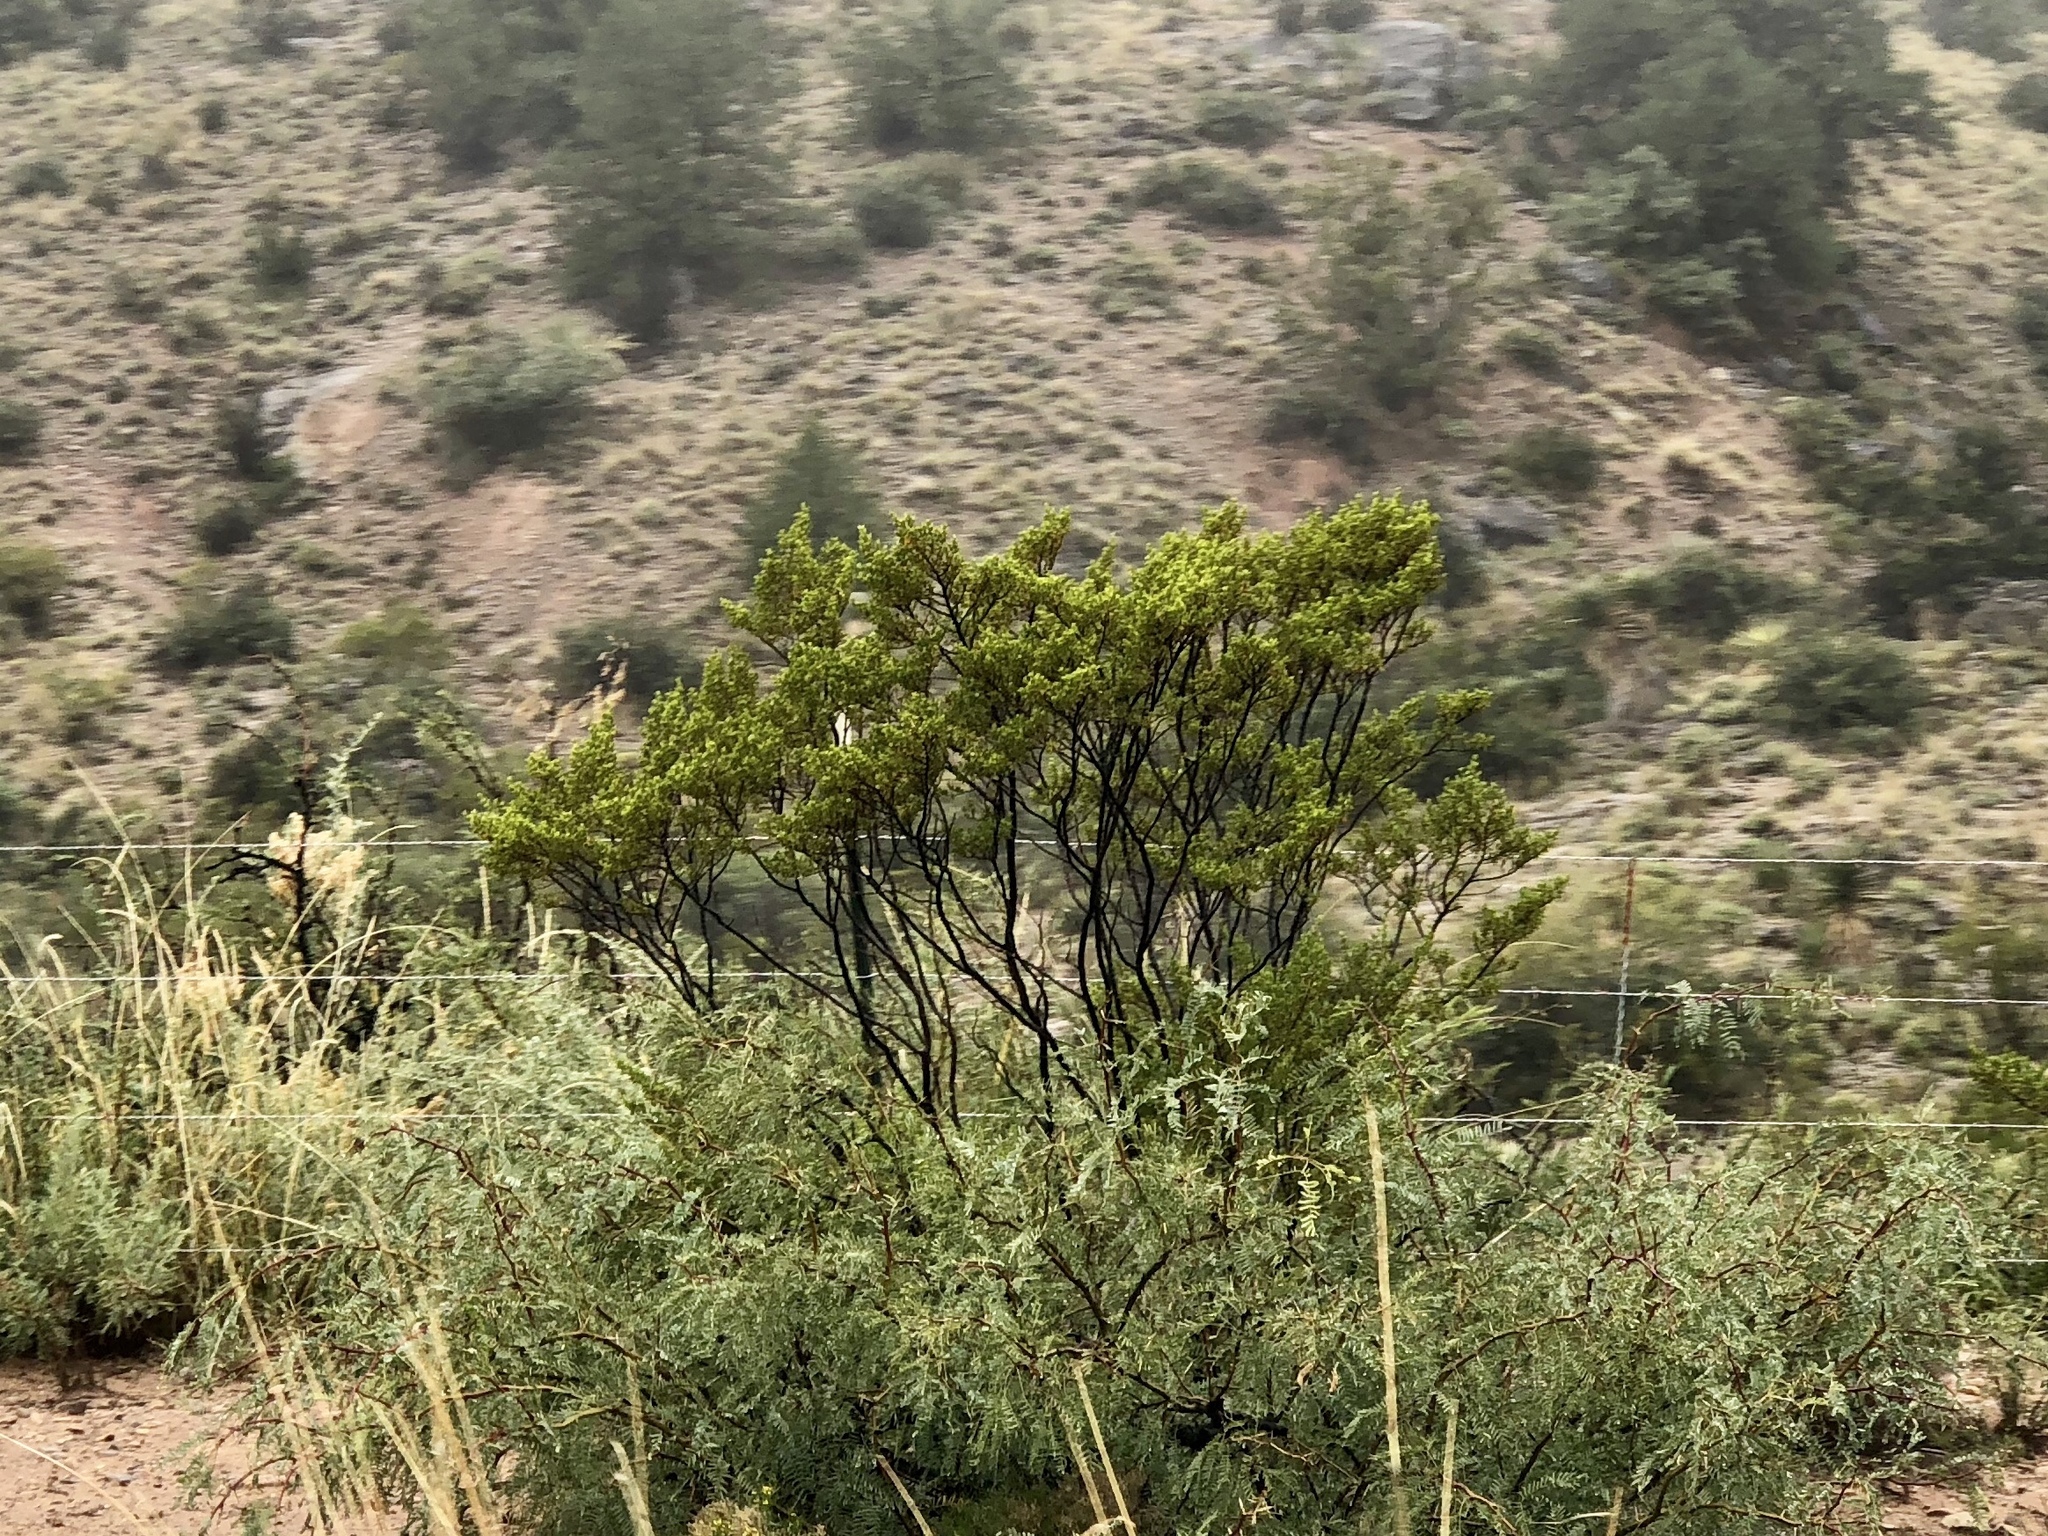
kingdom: Plantae
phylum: Tracheophyta
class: Magnoliopsida
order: Zygophyllales
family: Zygophyllaceae
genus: Larrea
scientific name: Larrea tridentata
